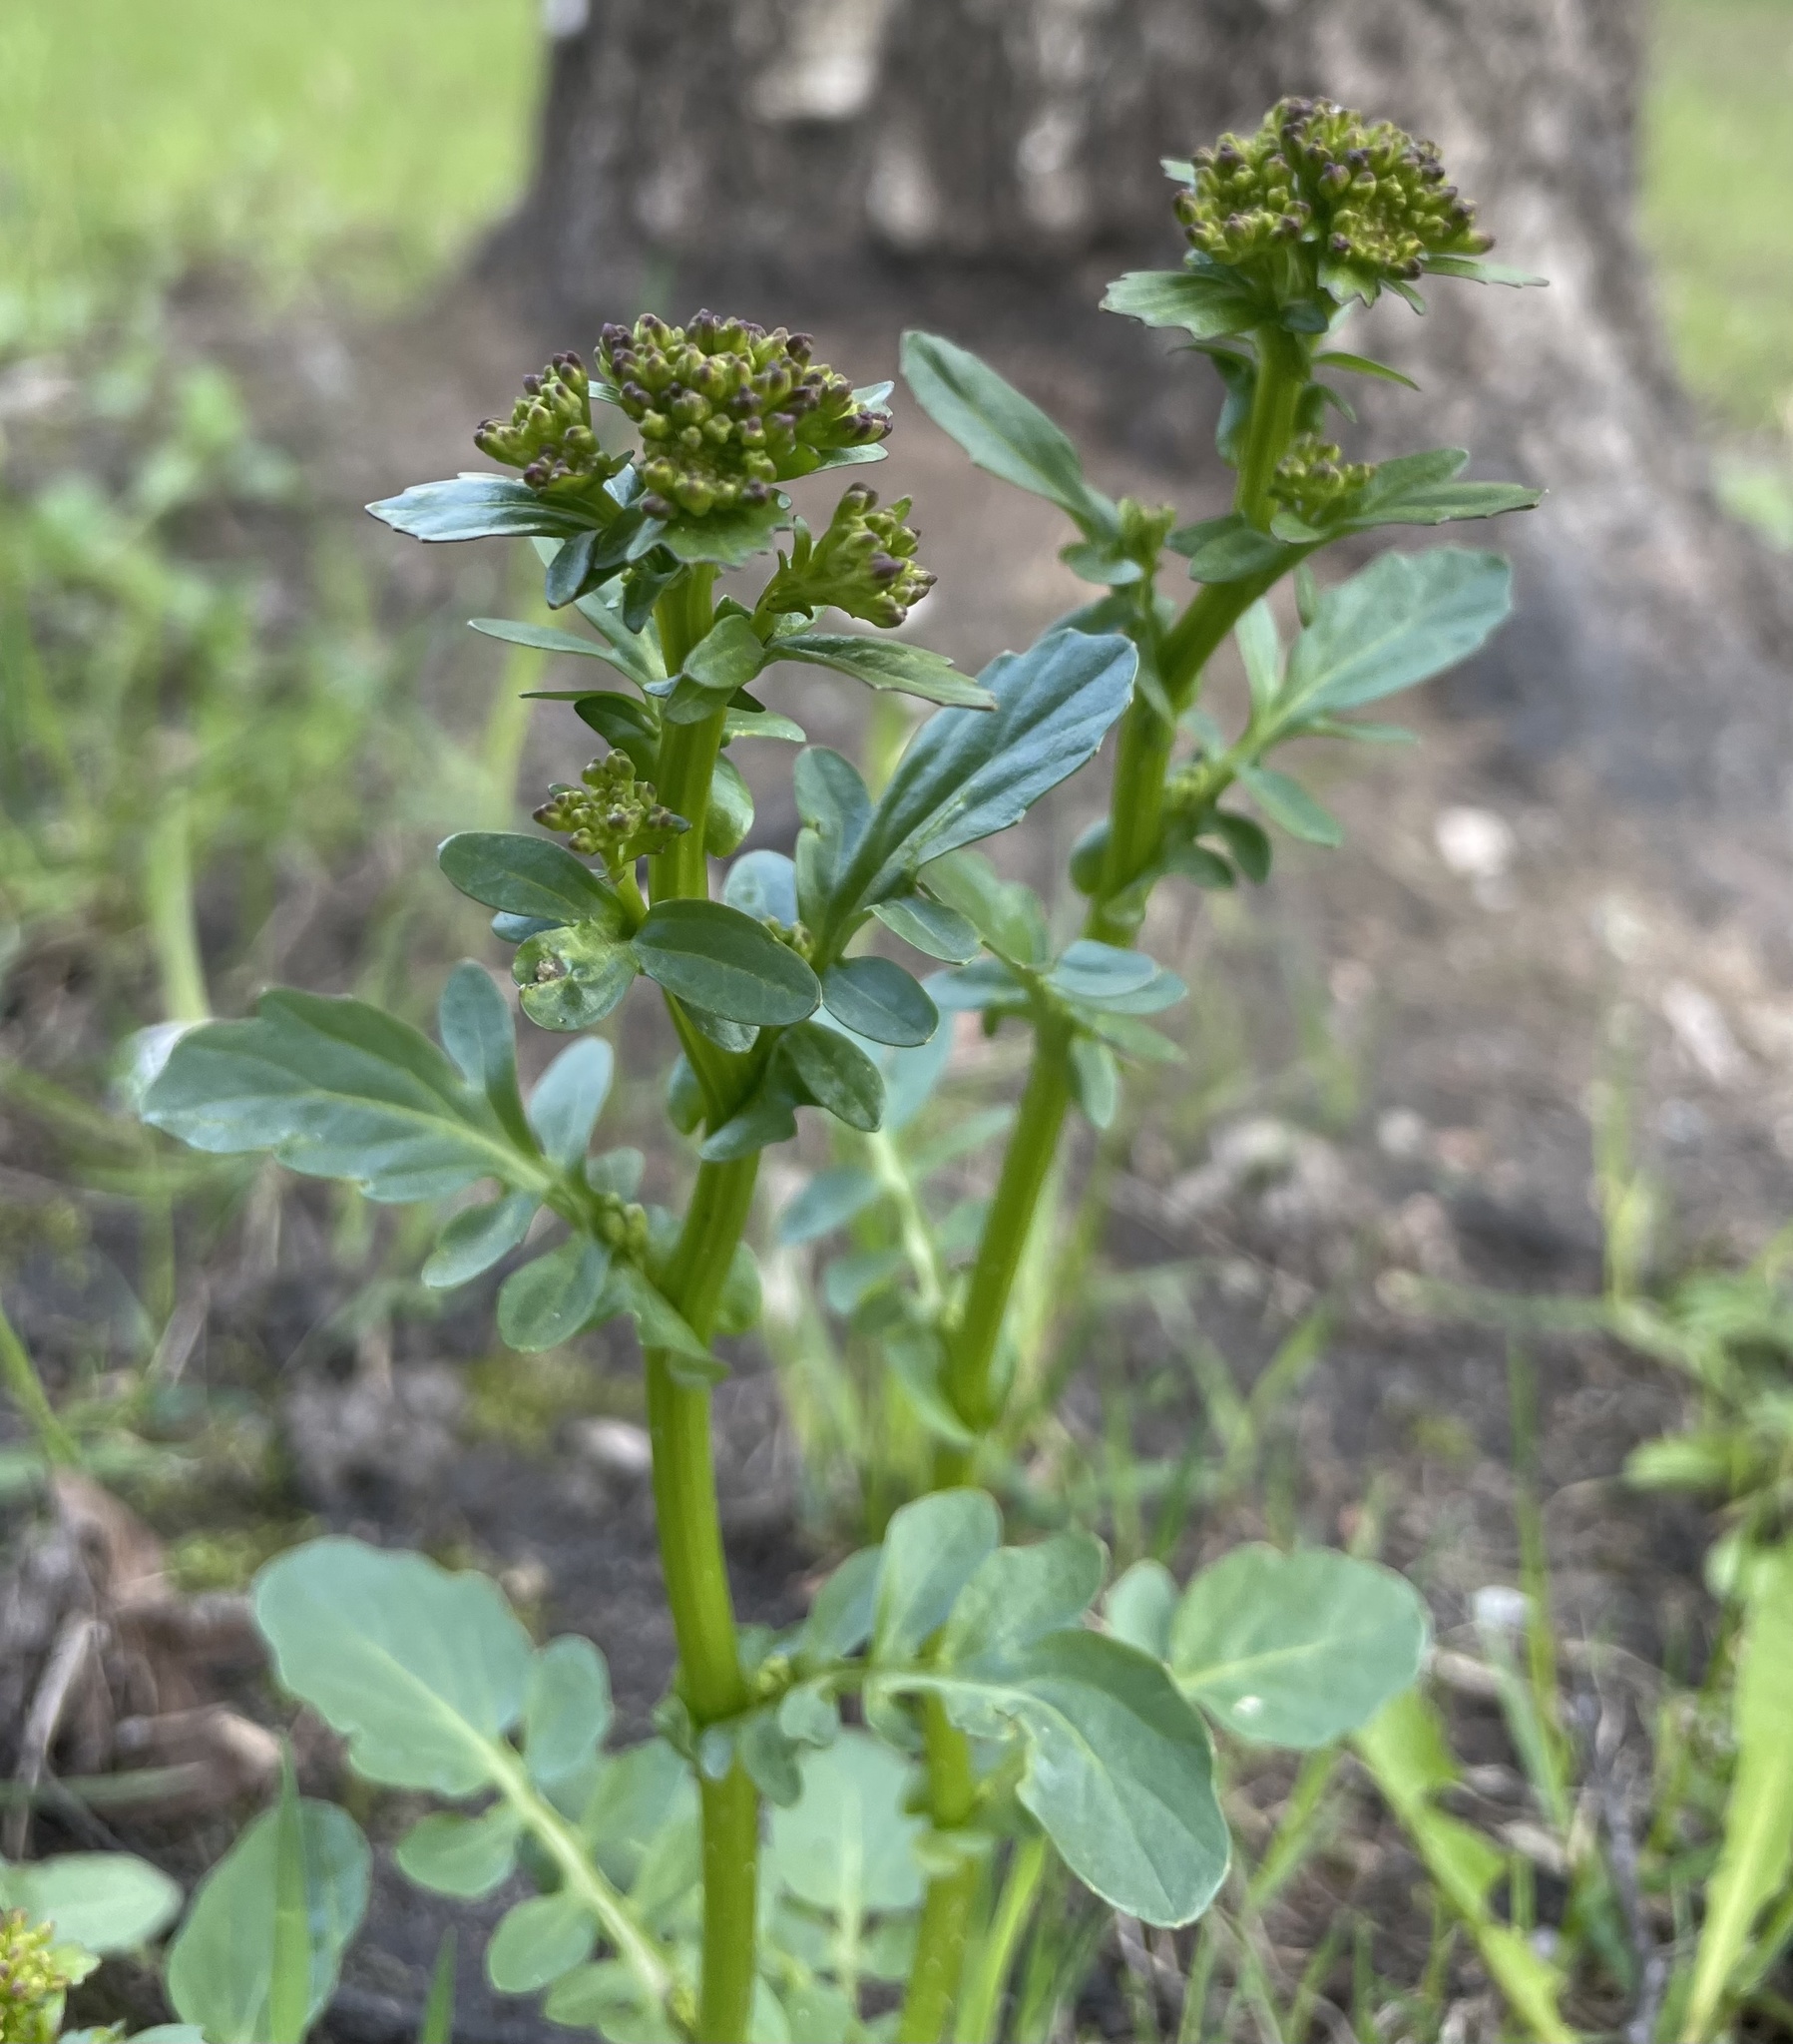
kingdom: Plantae
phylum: Tracheophyta
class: Magnoliopsida
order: Brassicales
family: Brassicaceae
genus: Barbarea
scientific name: Barbarea vulgaris
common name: Cressy-greens
